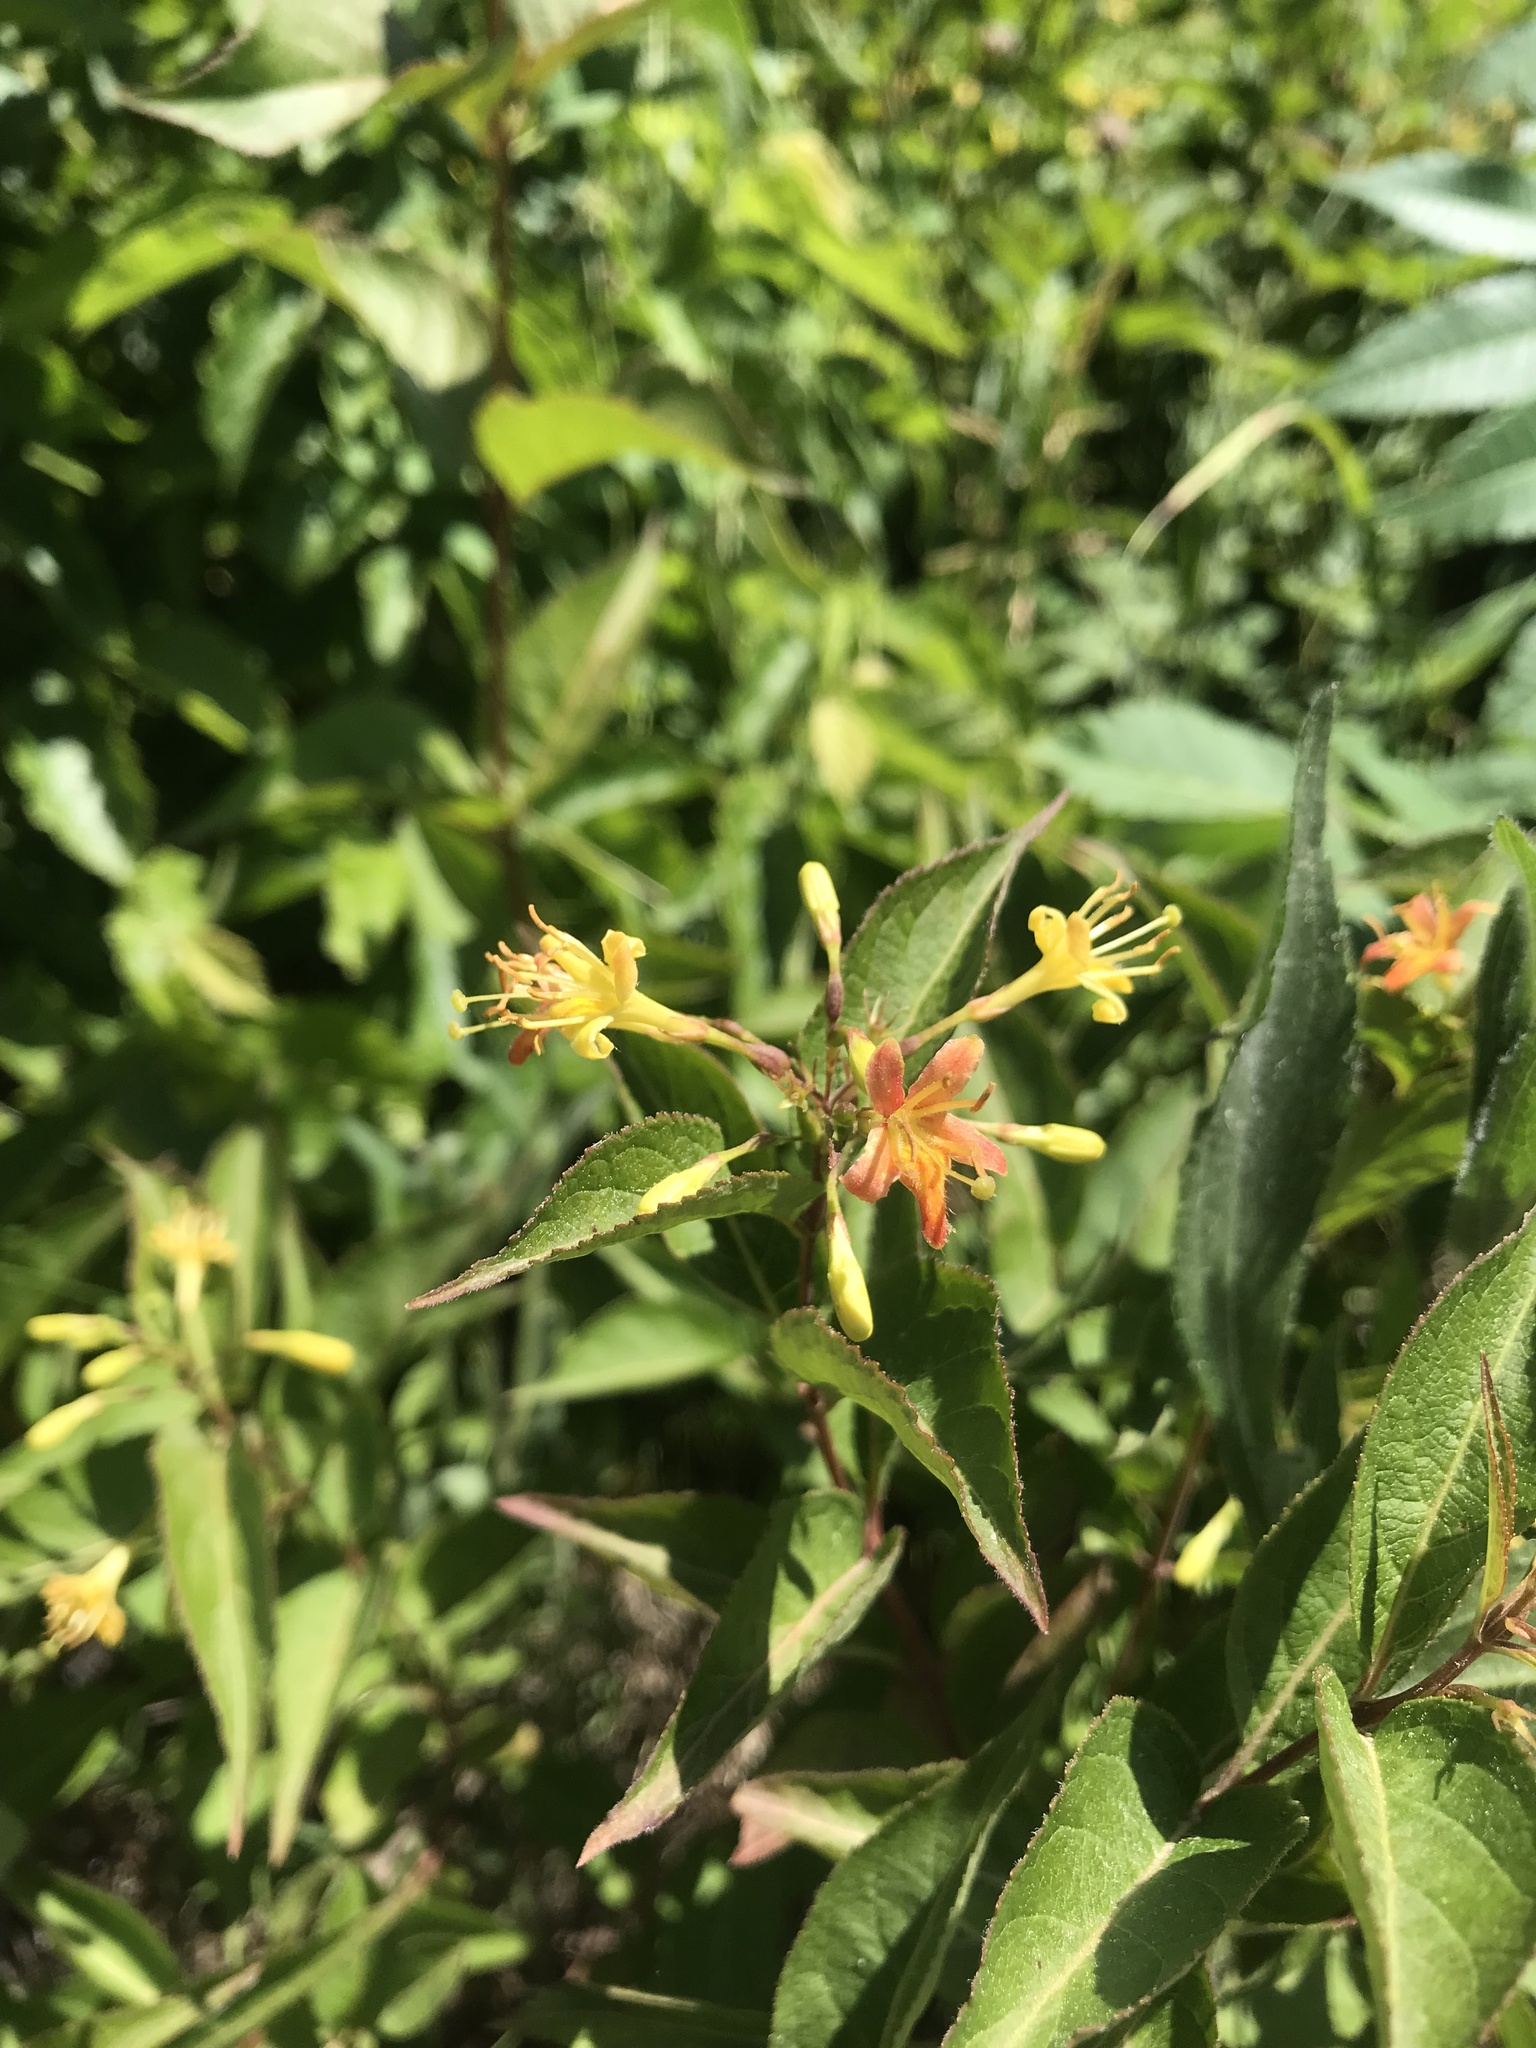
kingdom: Plantae
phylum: Tracheophyta
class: Magnoliopsida
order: Dipsacales
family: Caprifoliaceae
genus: Diervilla
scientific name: Diervilla lonicera
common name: Bush-honeysuckle
